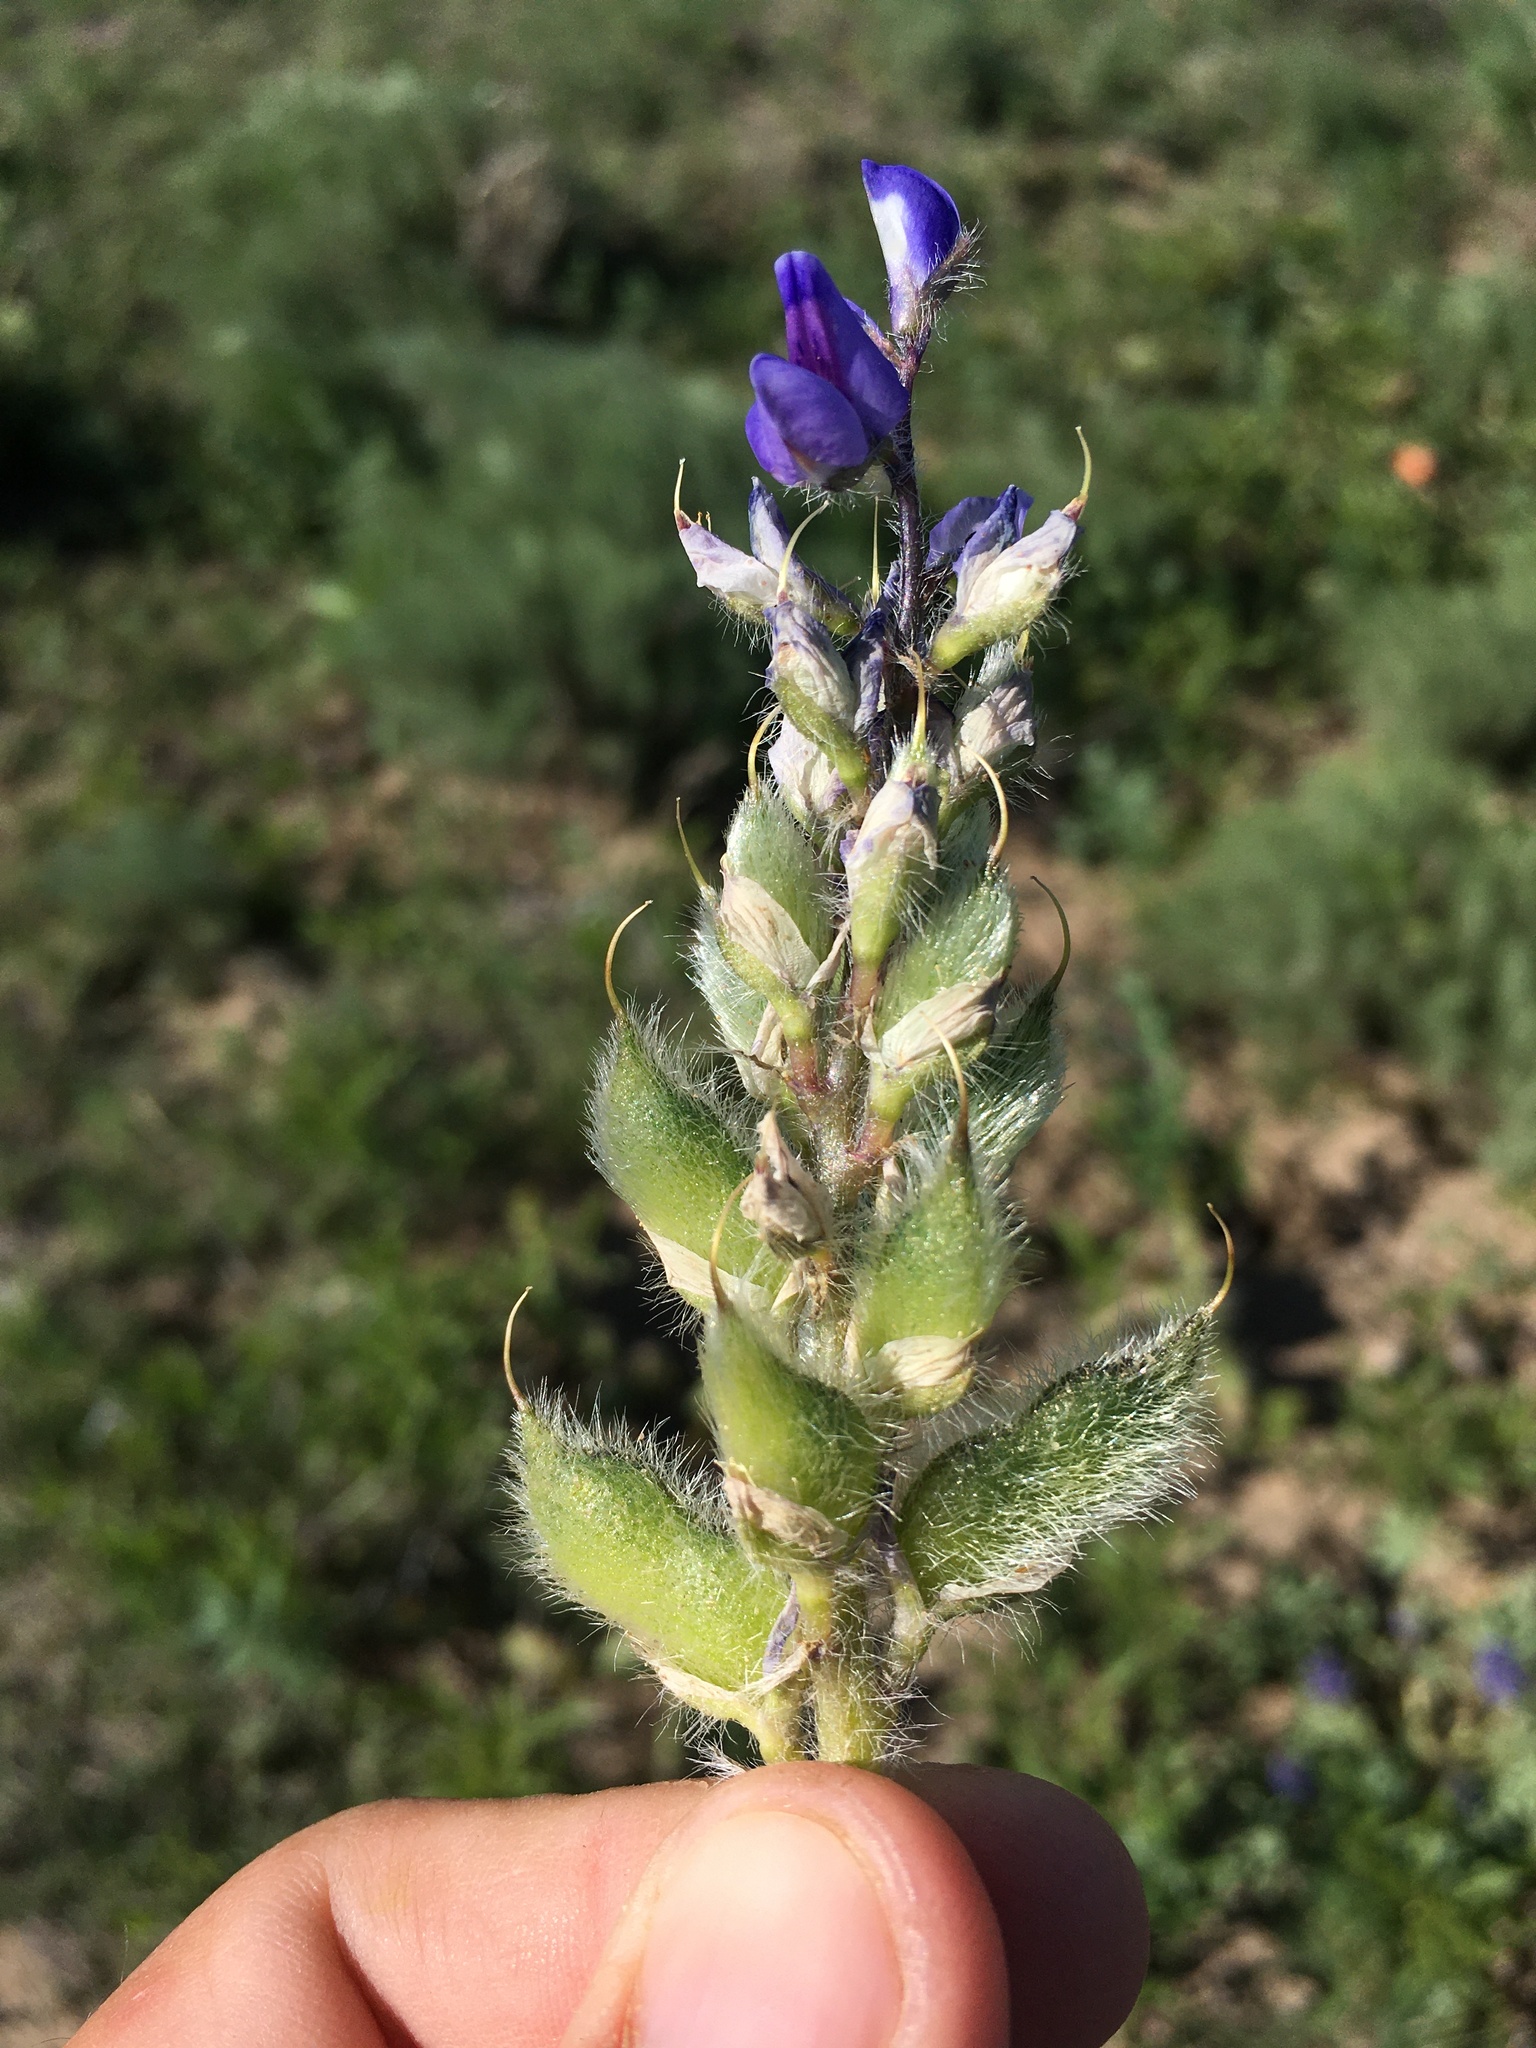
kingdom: Plantae
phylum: Tracheophyta
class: Magnoliopsida
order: Fabales
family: Fabaceae
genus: Lupinus
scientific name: Lupinus pusillus
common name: Low lupine
